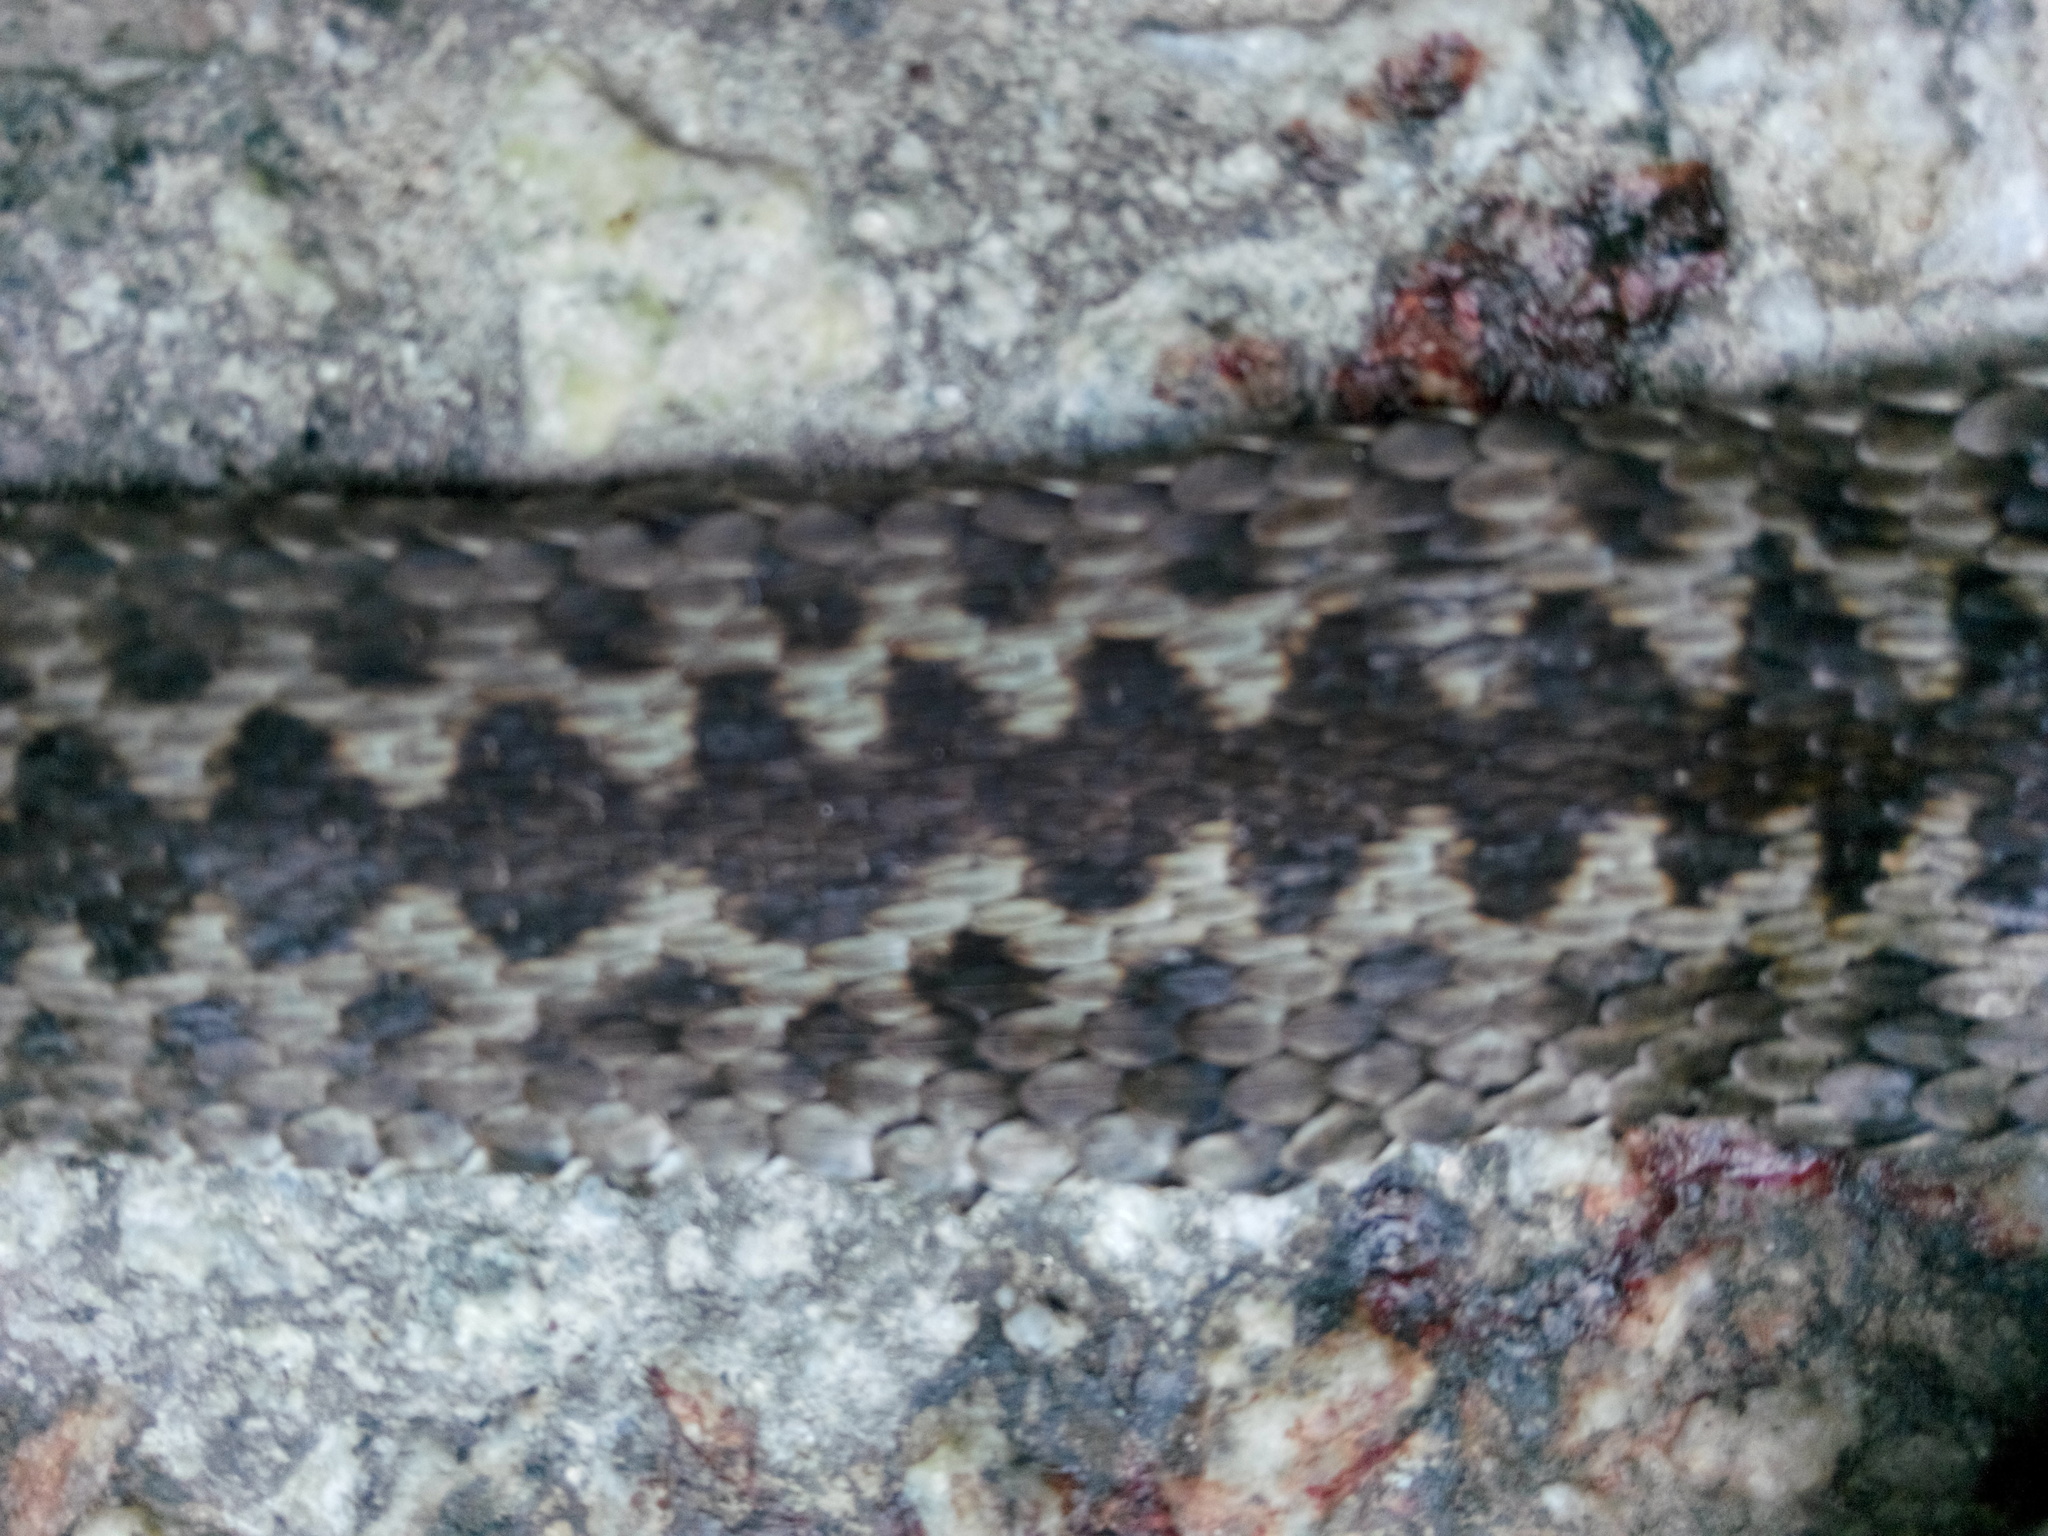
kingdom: Animalia
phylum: Chordata
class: Squamata
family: Viperidae
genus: Vipera
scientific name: Vipera berus
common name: Adder
